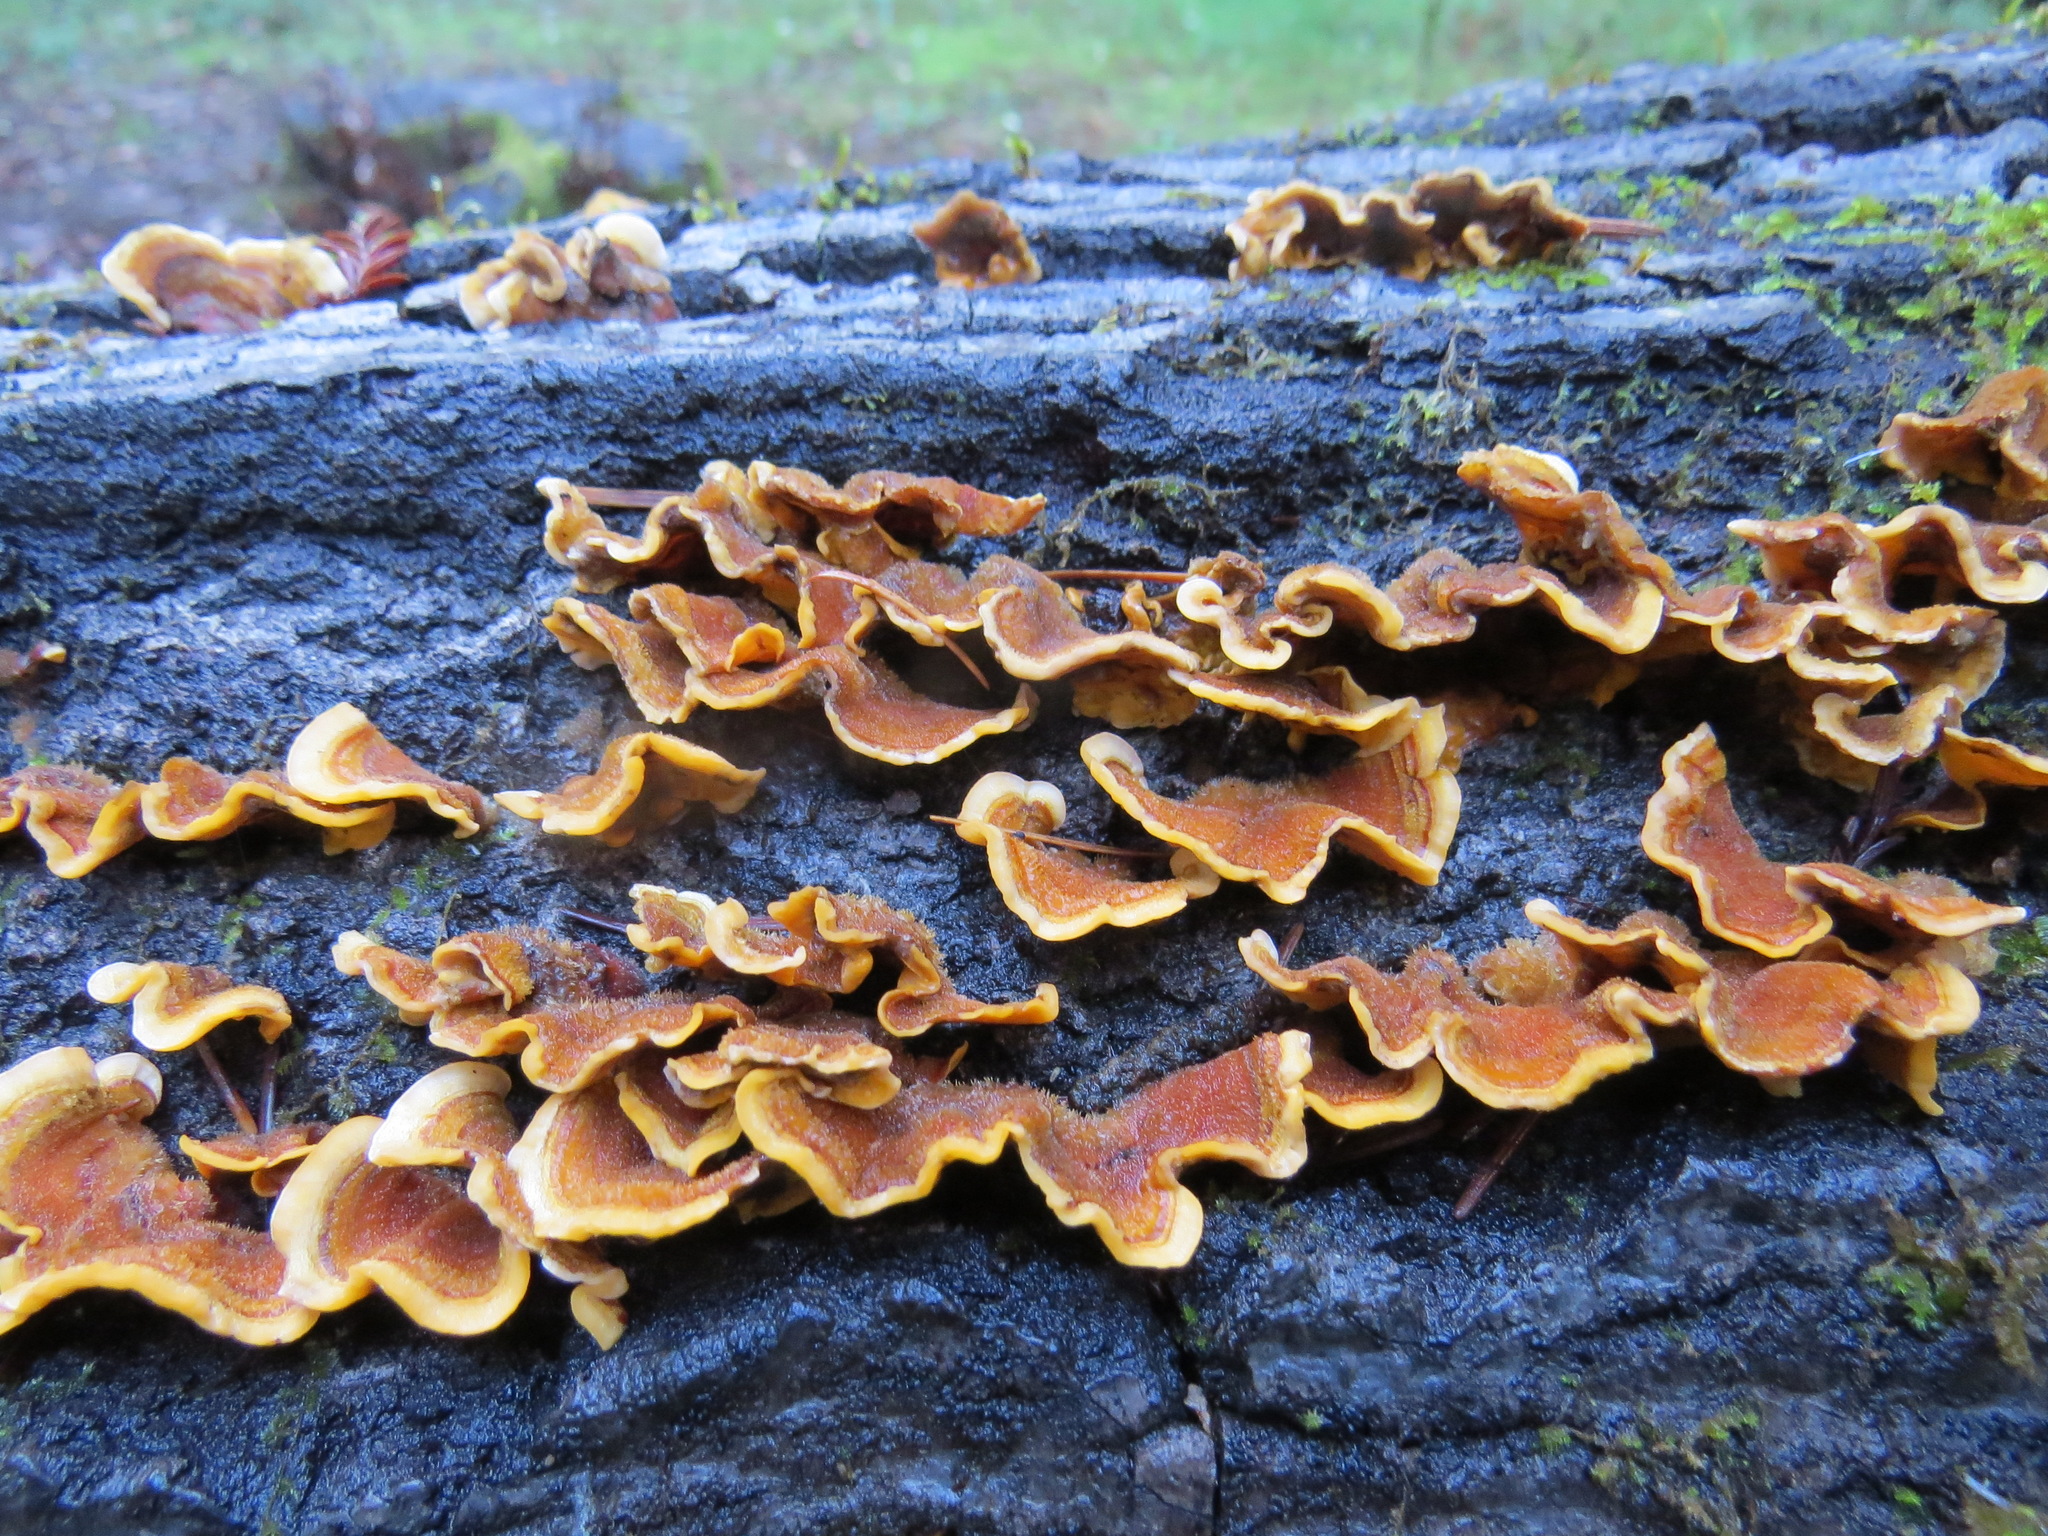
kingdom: Fungi
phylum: Basidiomycota
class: Agaricomycetes
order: Russulales
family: Stereaceae
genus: Stereum
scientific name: Stereum hirsutum
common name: Hairy curtain crust
